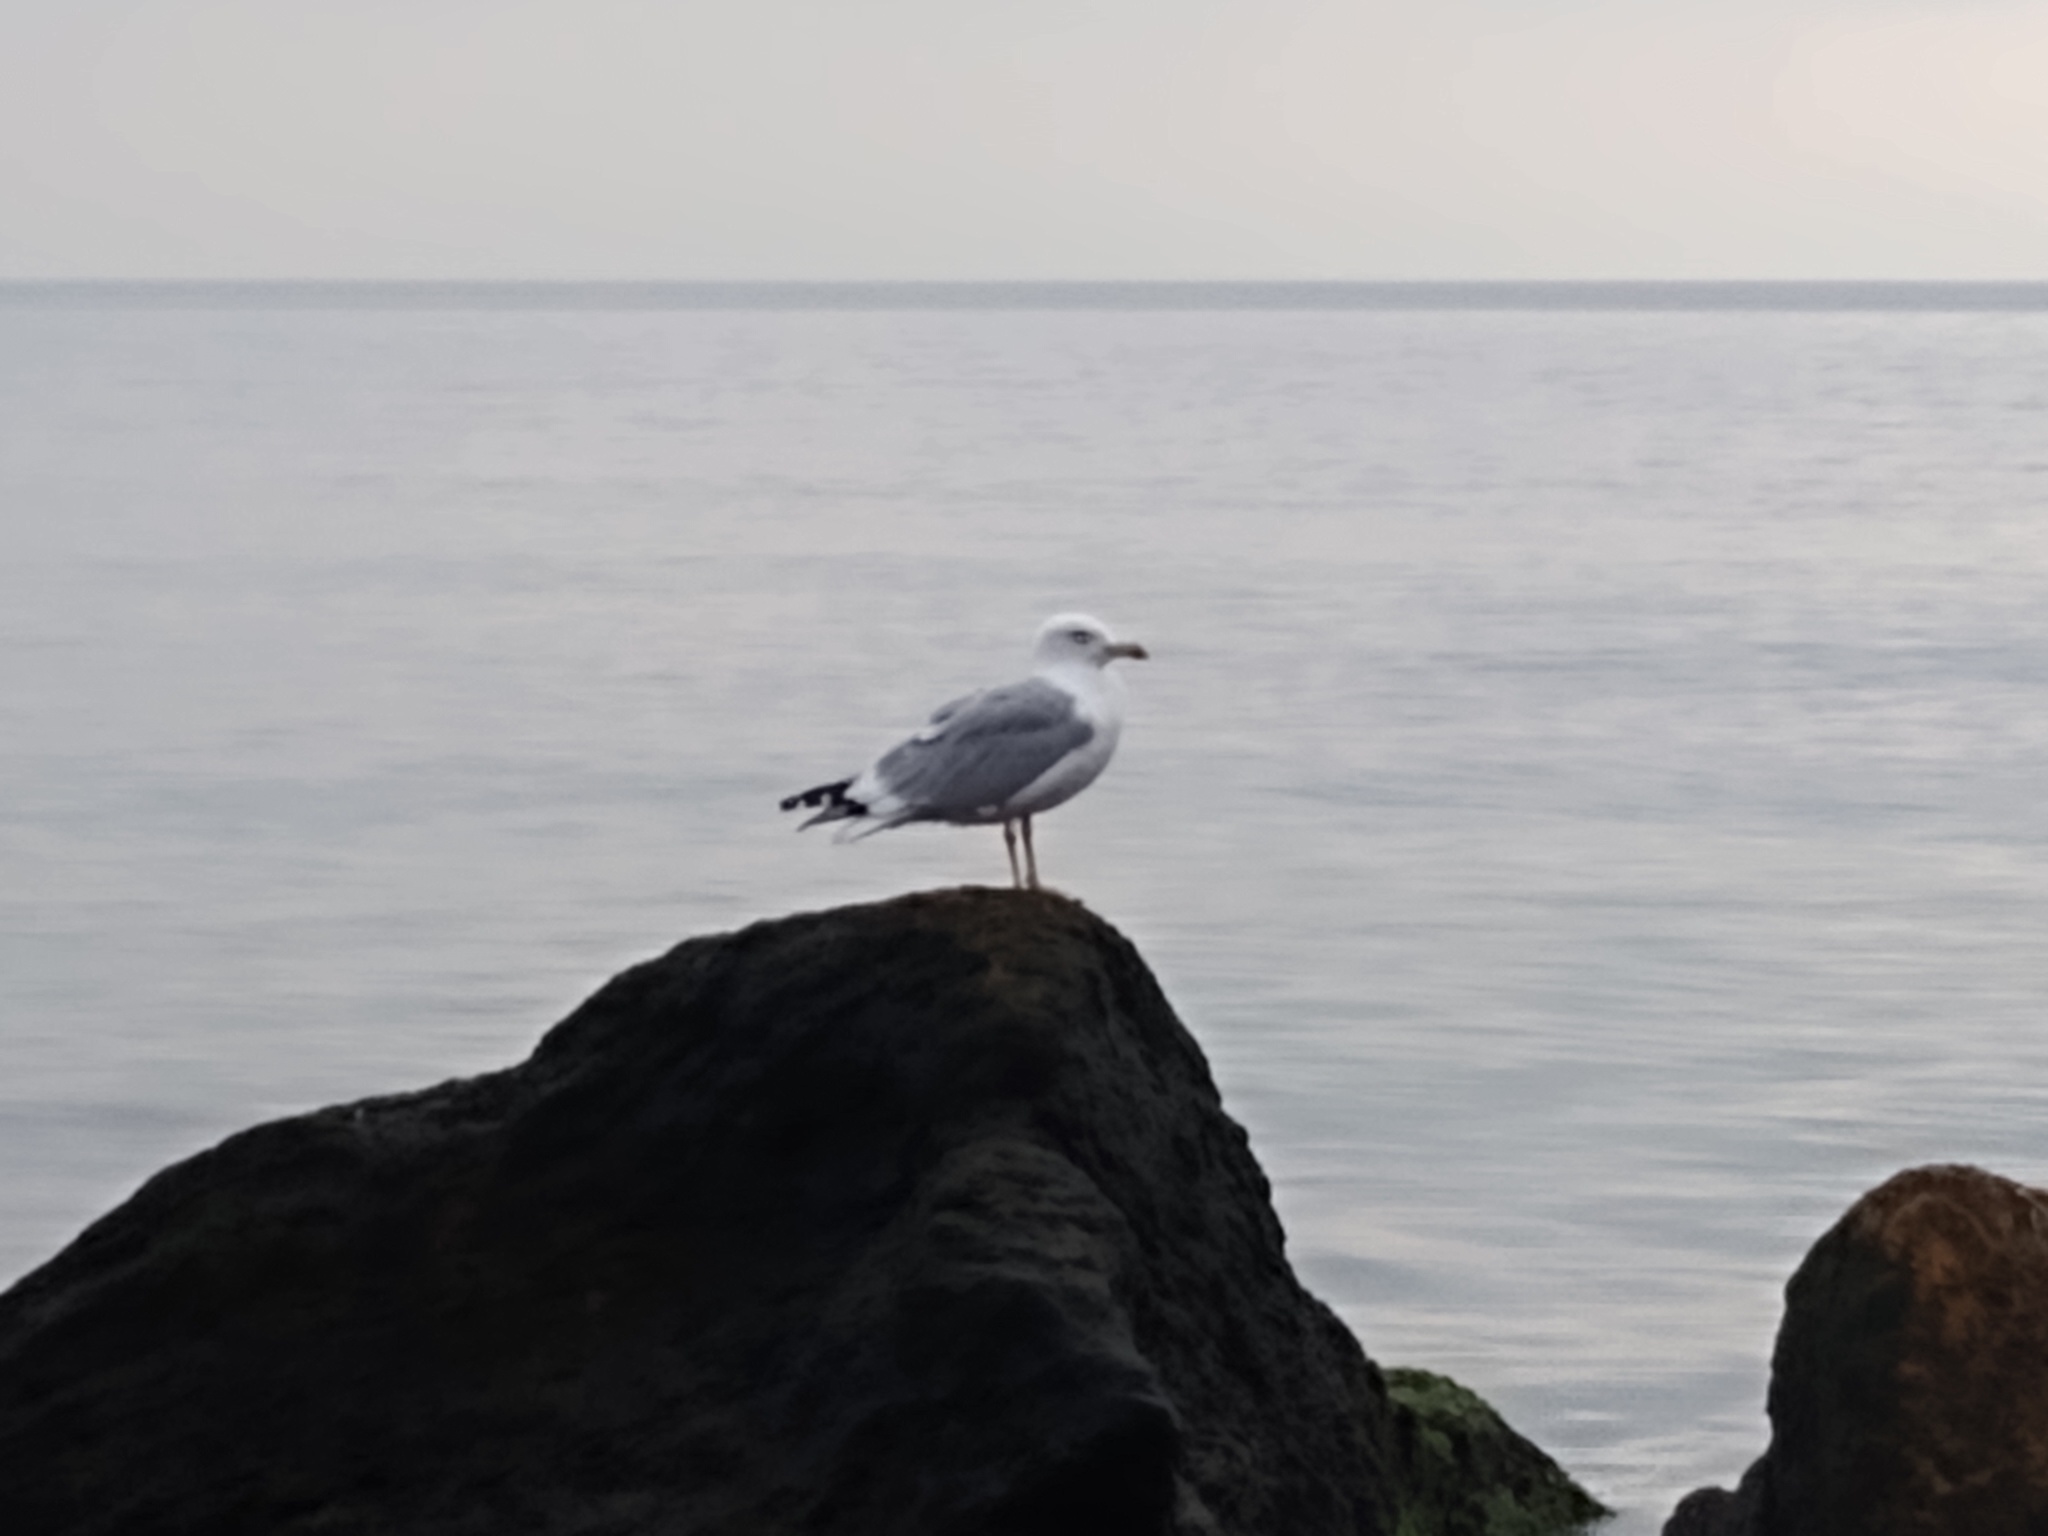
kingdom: Animalia
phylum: Chordata
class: Aves
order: Charadriiformes
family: Laridae
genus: Larus
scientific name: Larus michahellis
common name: Yellow-legged gull
